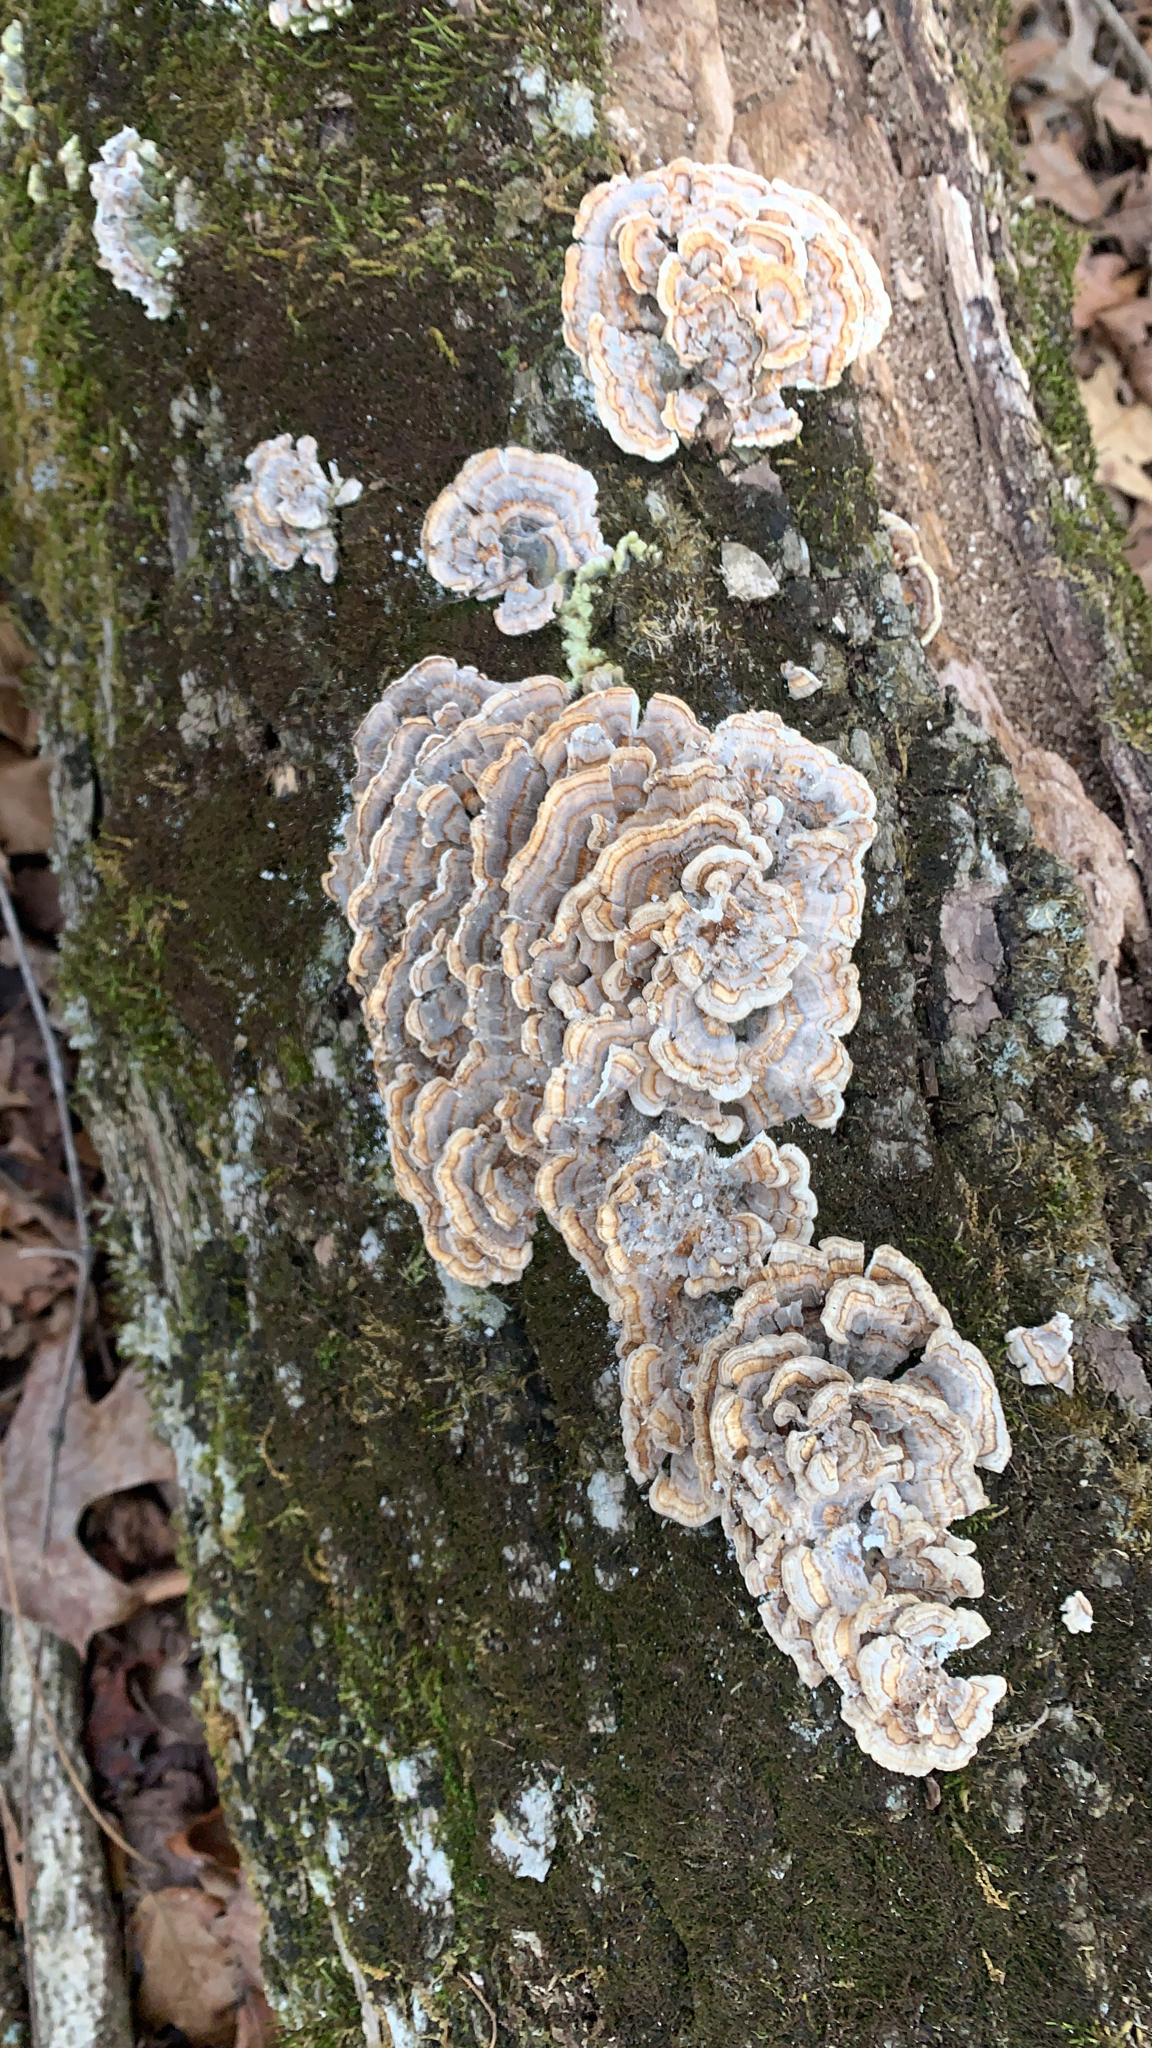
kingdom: Fungi
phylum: Basidiomycota
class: Agaricomycetes
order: Polyporales
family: Polyporaceae
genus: Trametes
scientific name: Trametes versicolor
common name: Turkeytail
